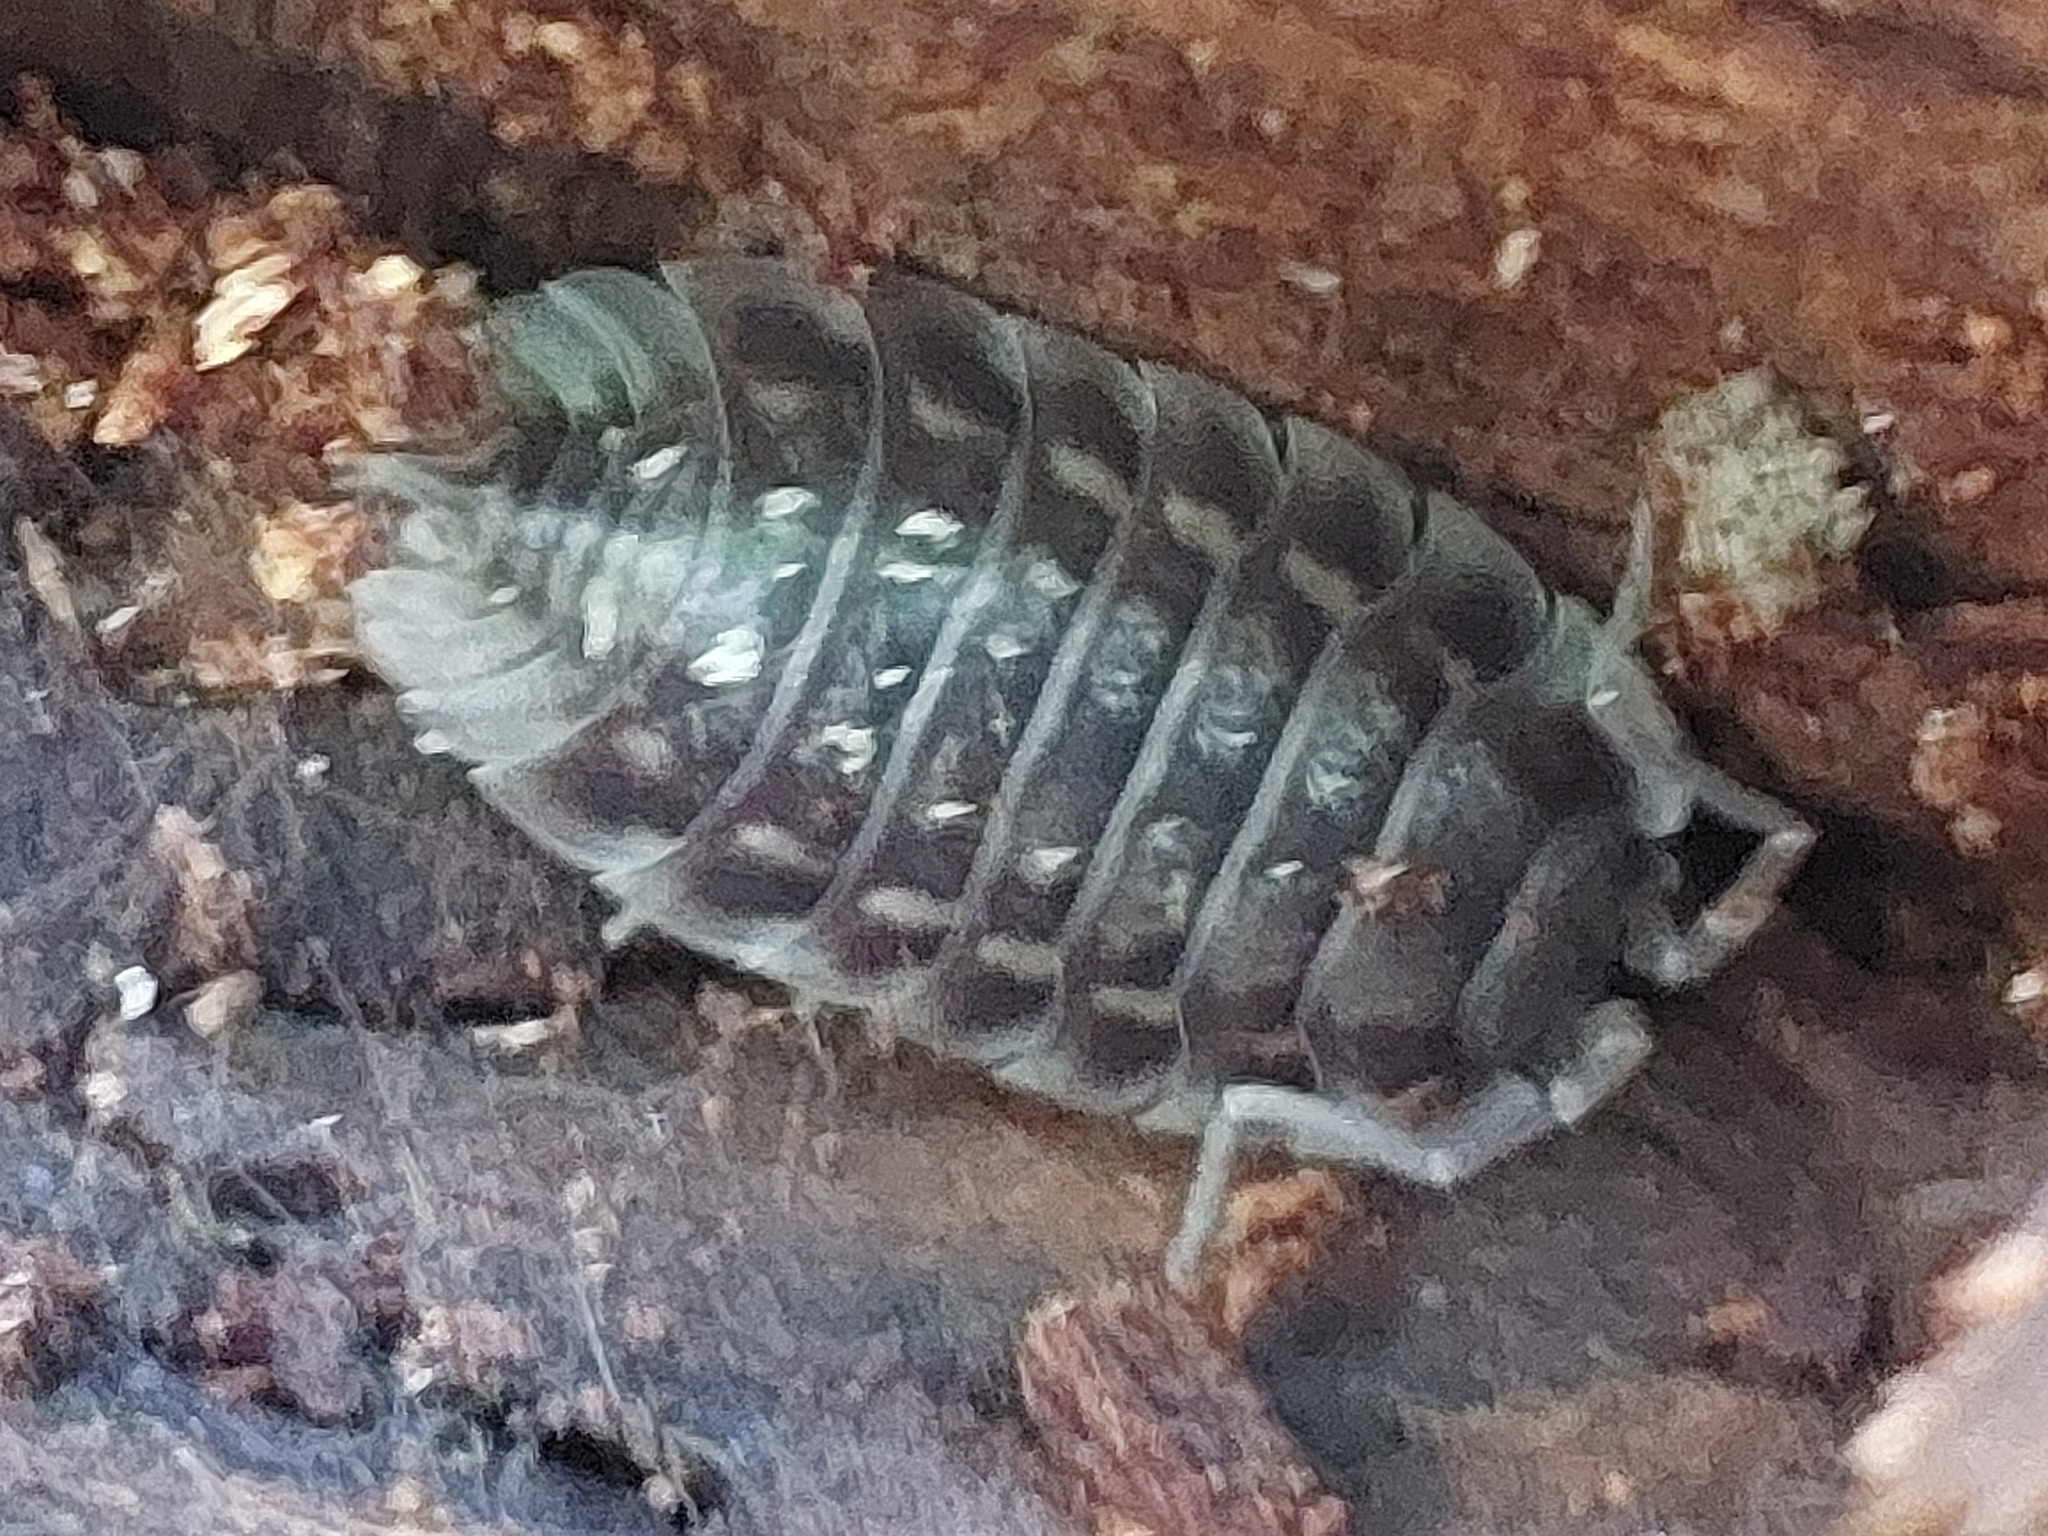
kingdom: Animalia
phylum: Arthropoda
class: Malacostraca
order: Isopoda
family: Oniscidae
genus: Oniscus
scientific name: Oniscus asellus
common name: Common shiny woodlouse
